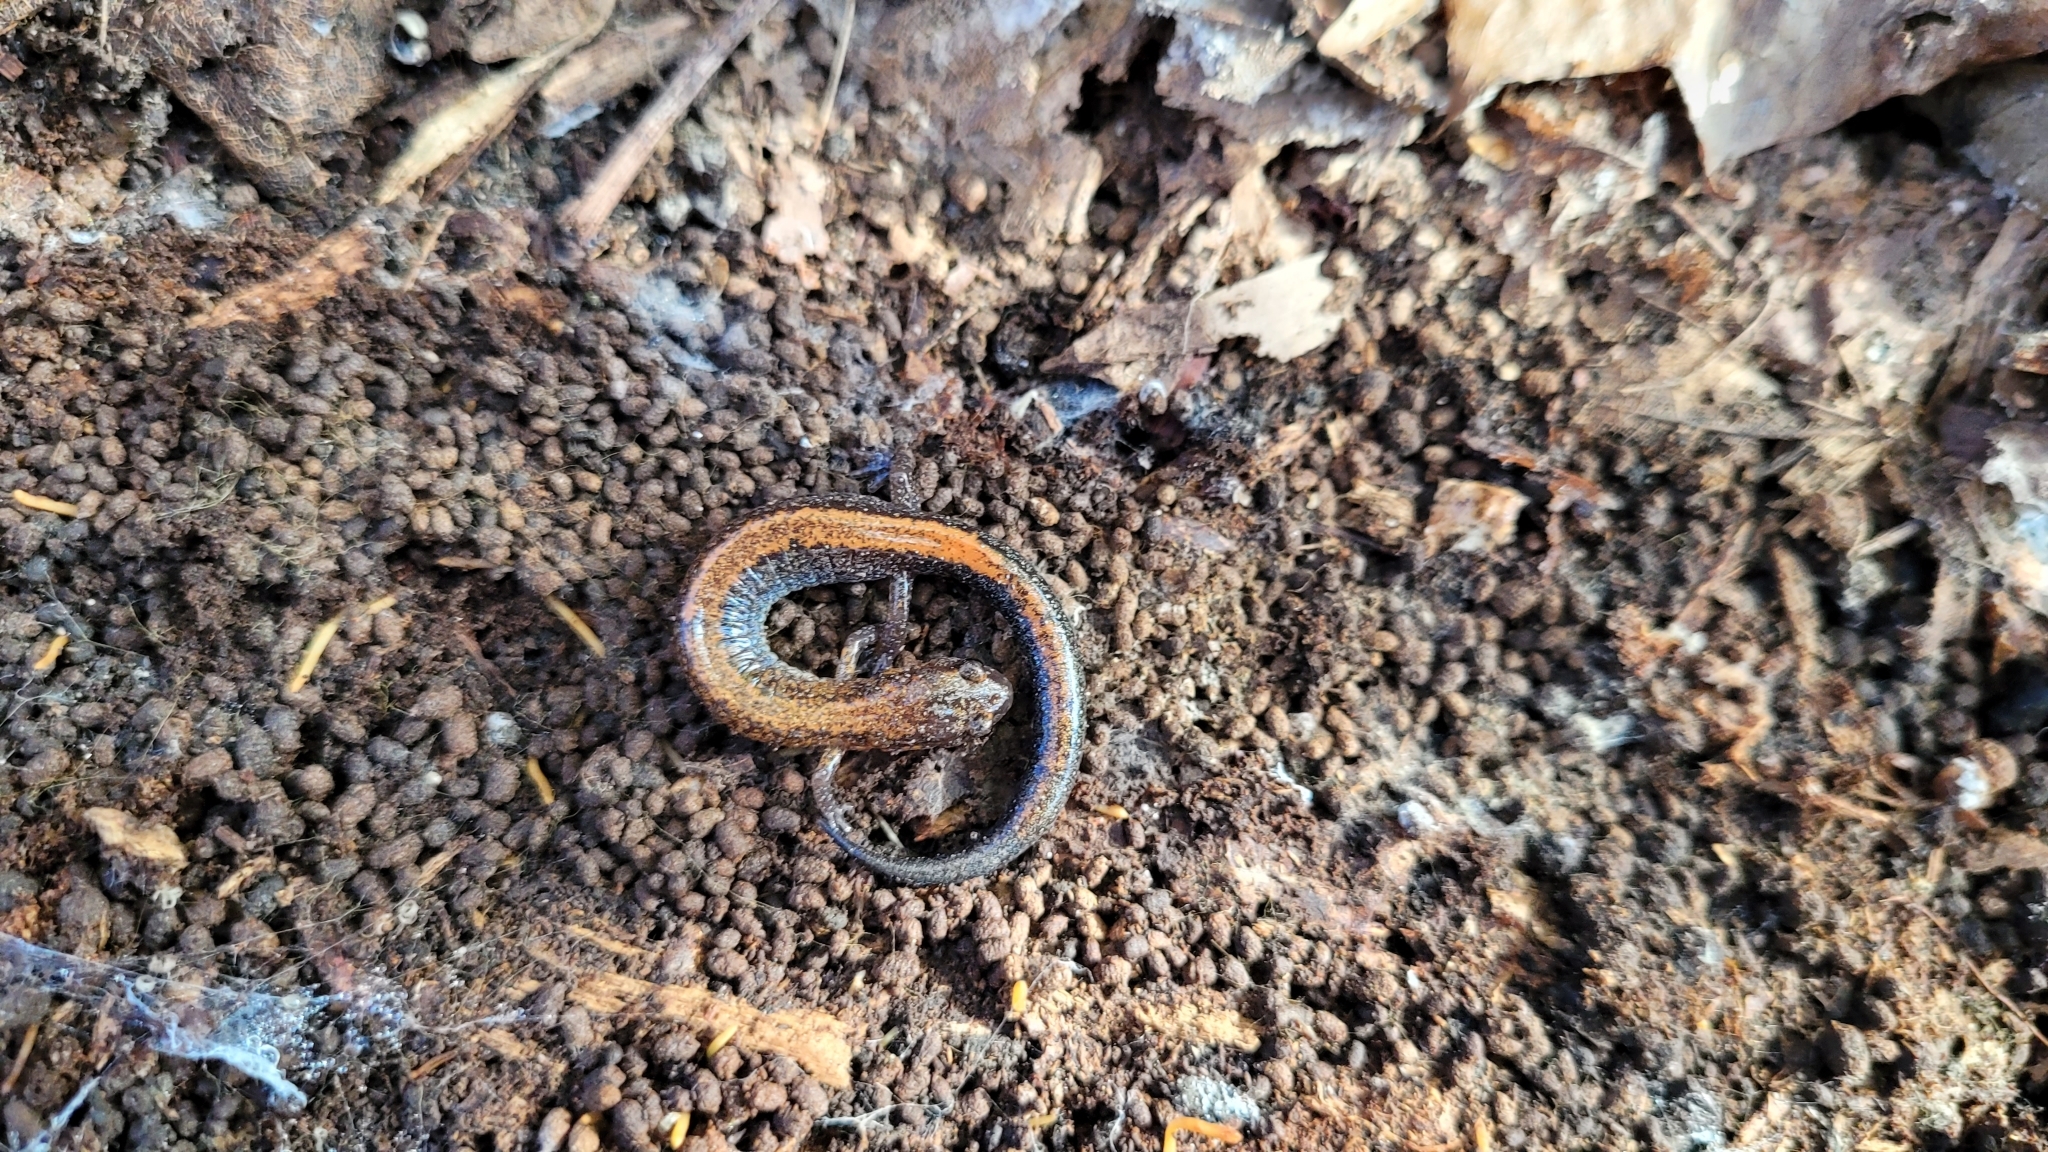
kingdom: Animalia
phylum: Chordata
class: Amphibia
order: Caudata
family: Plethodontidae
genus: Plethodon
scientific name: Plethodon cinereus
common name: Redback salamander
